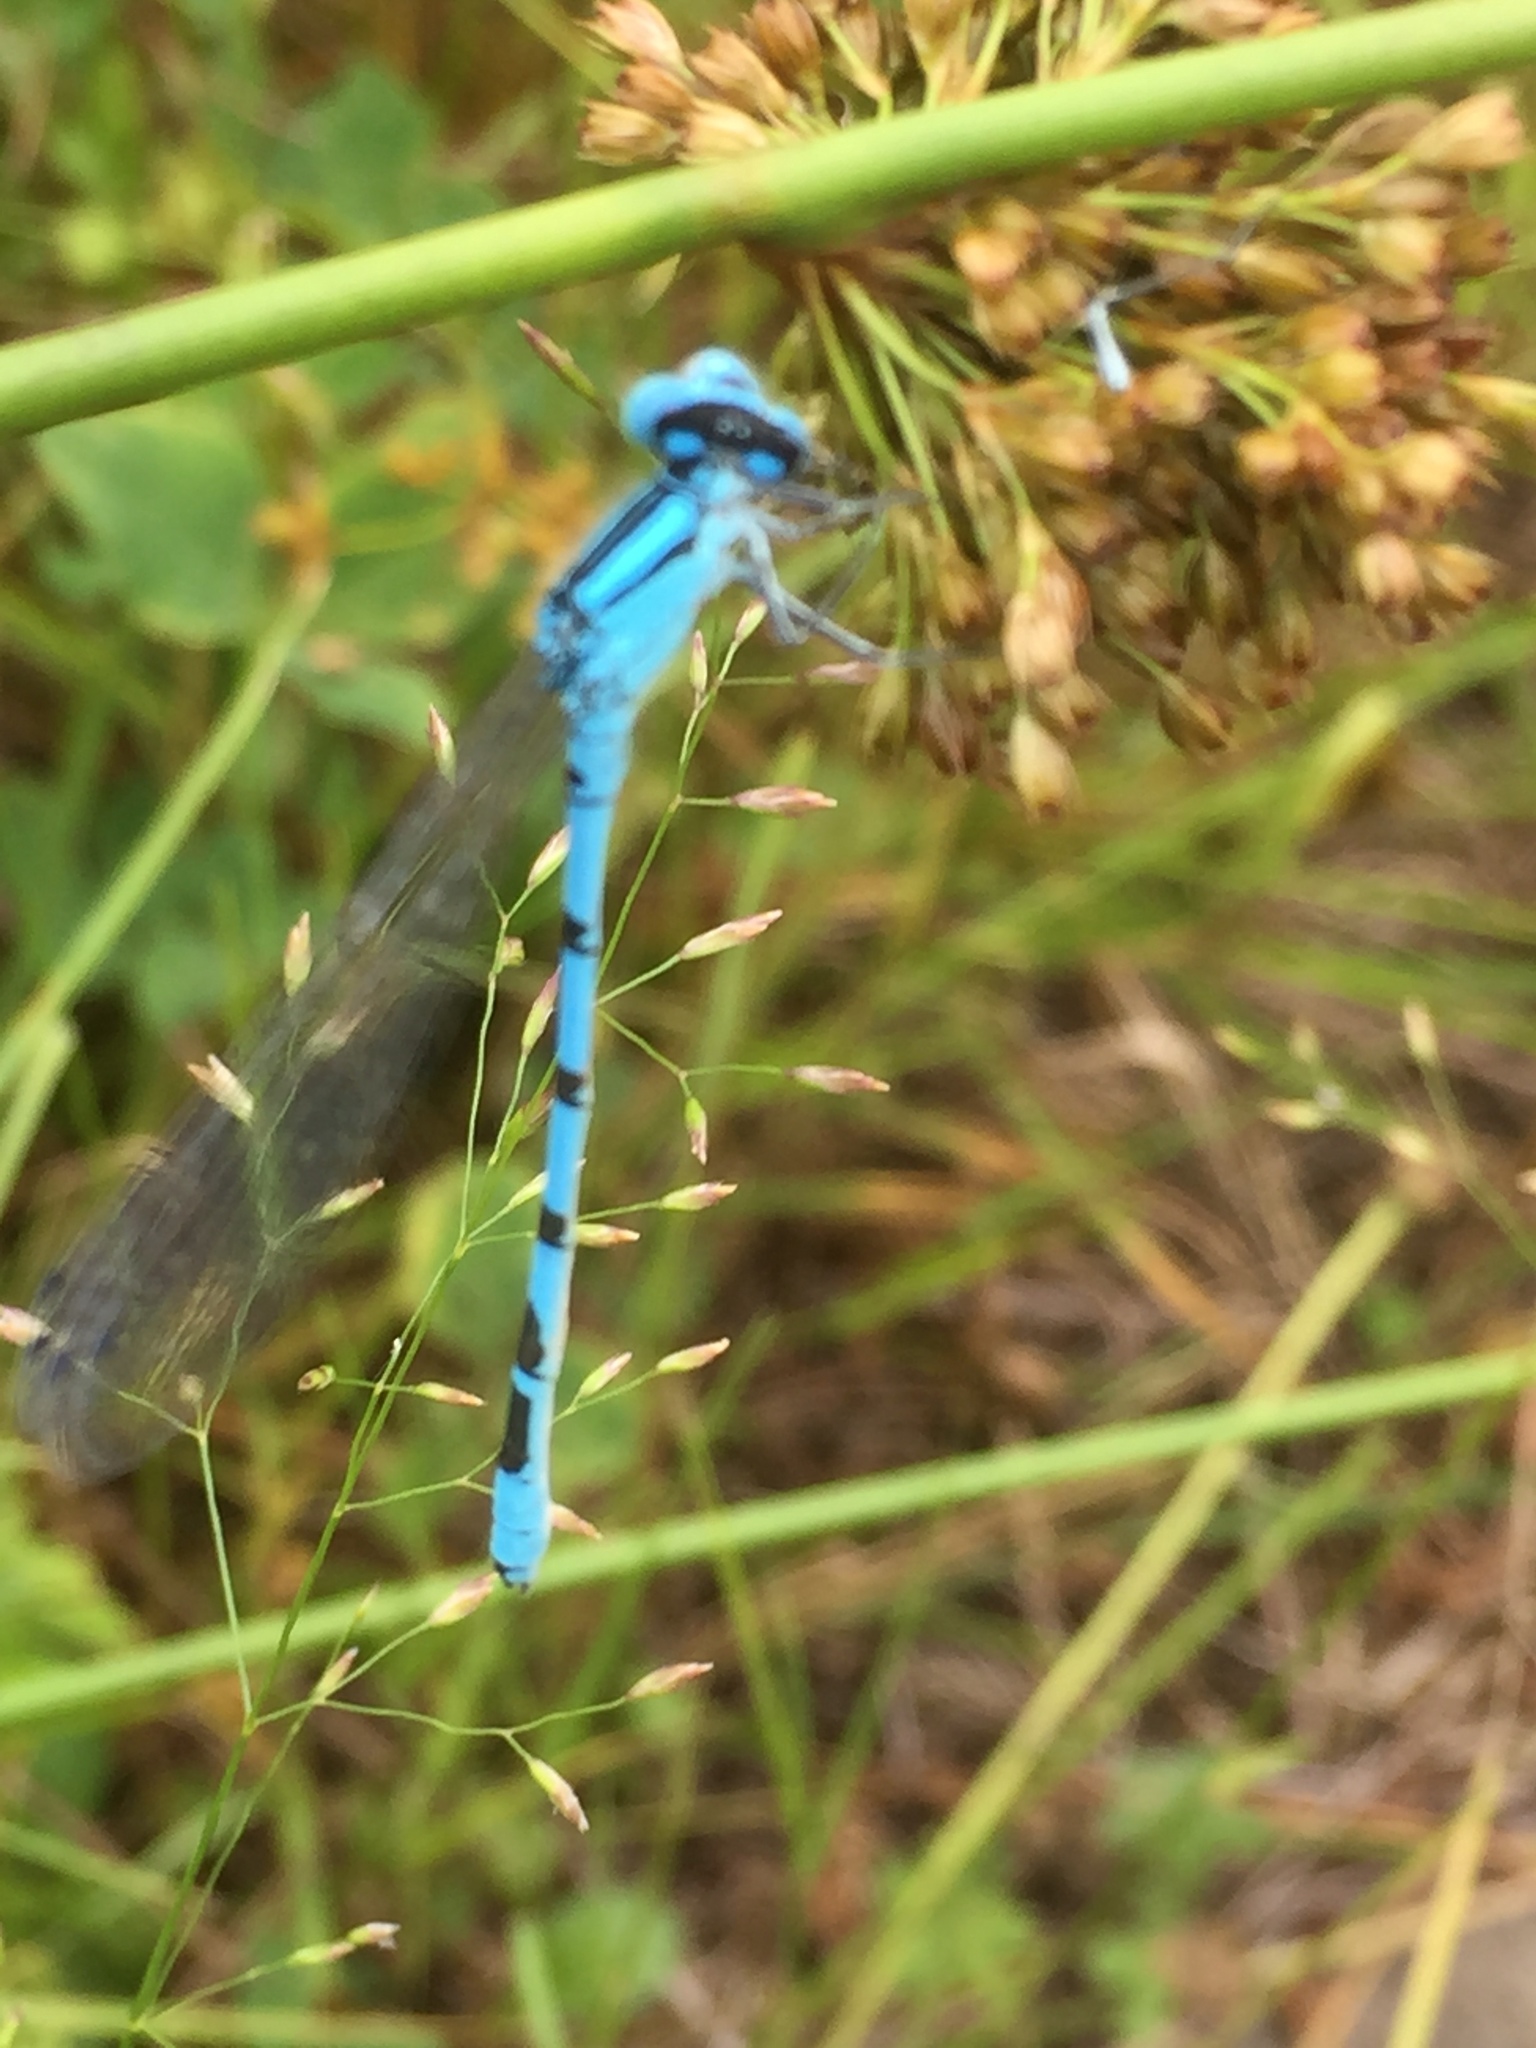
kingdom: Animalia
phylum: Arthropoda
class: Insecta
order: Odonata
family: Coenagrionidae
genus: Enallagma
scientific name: Enallagma cyathigerum
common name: Common blue damselfly
